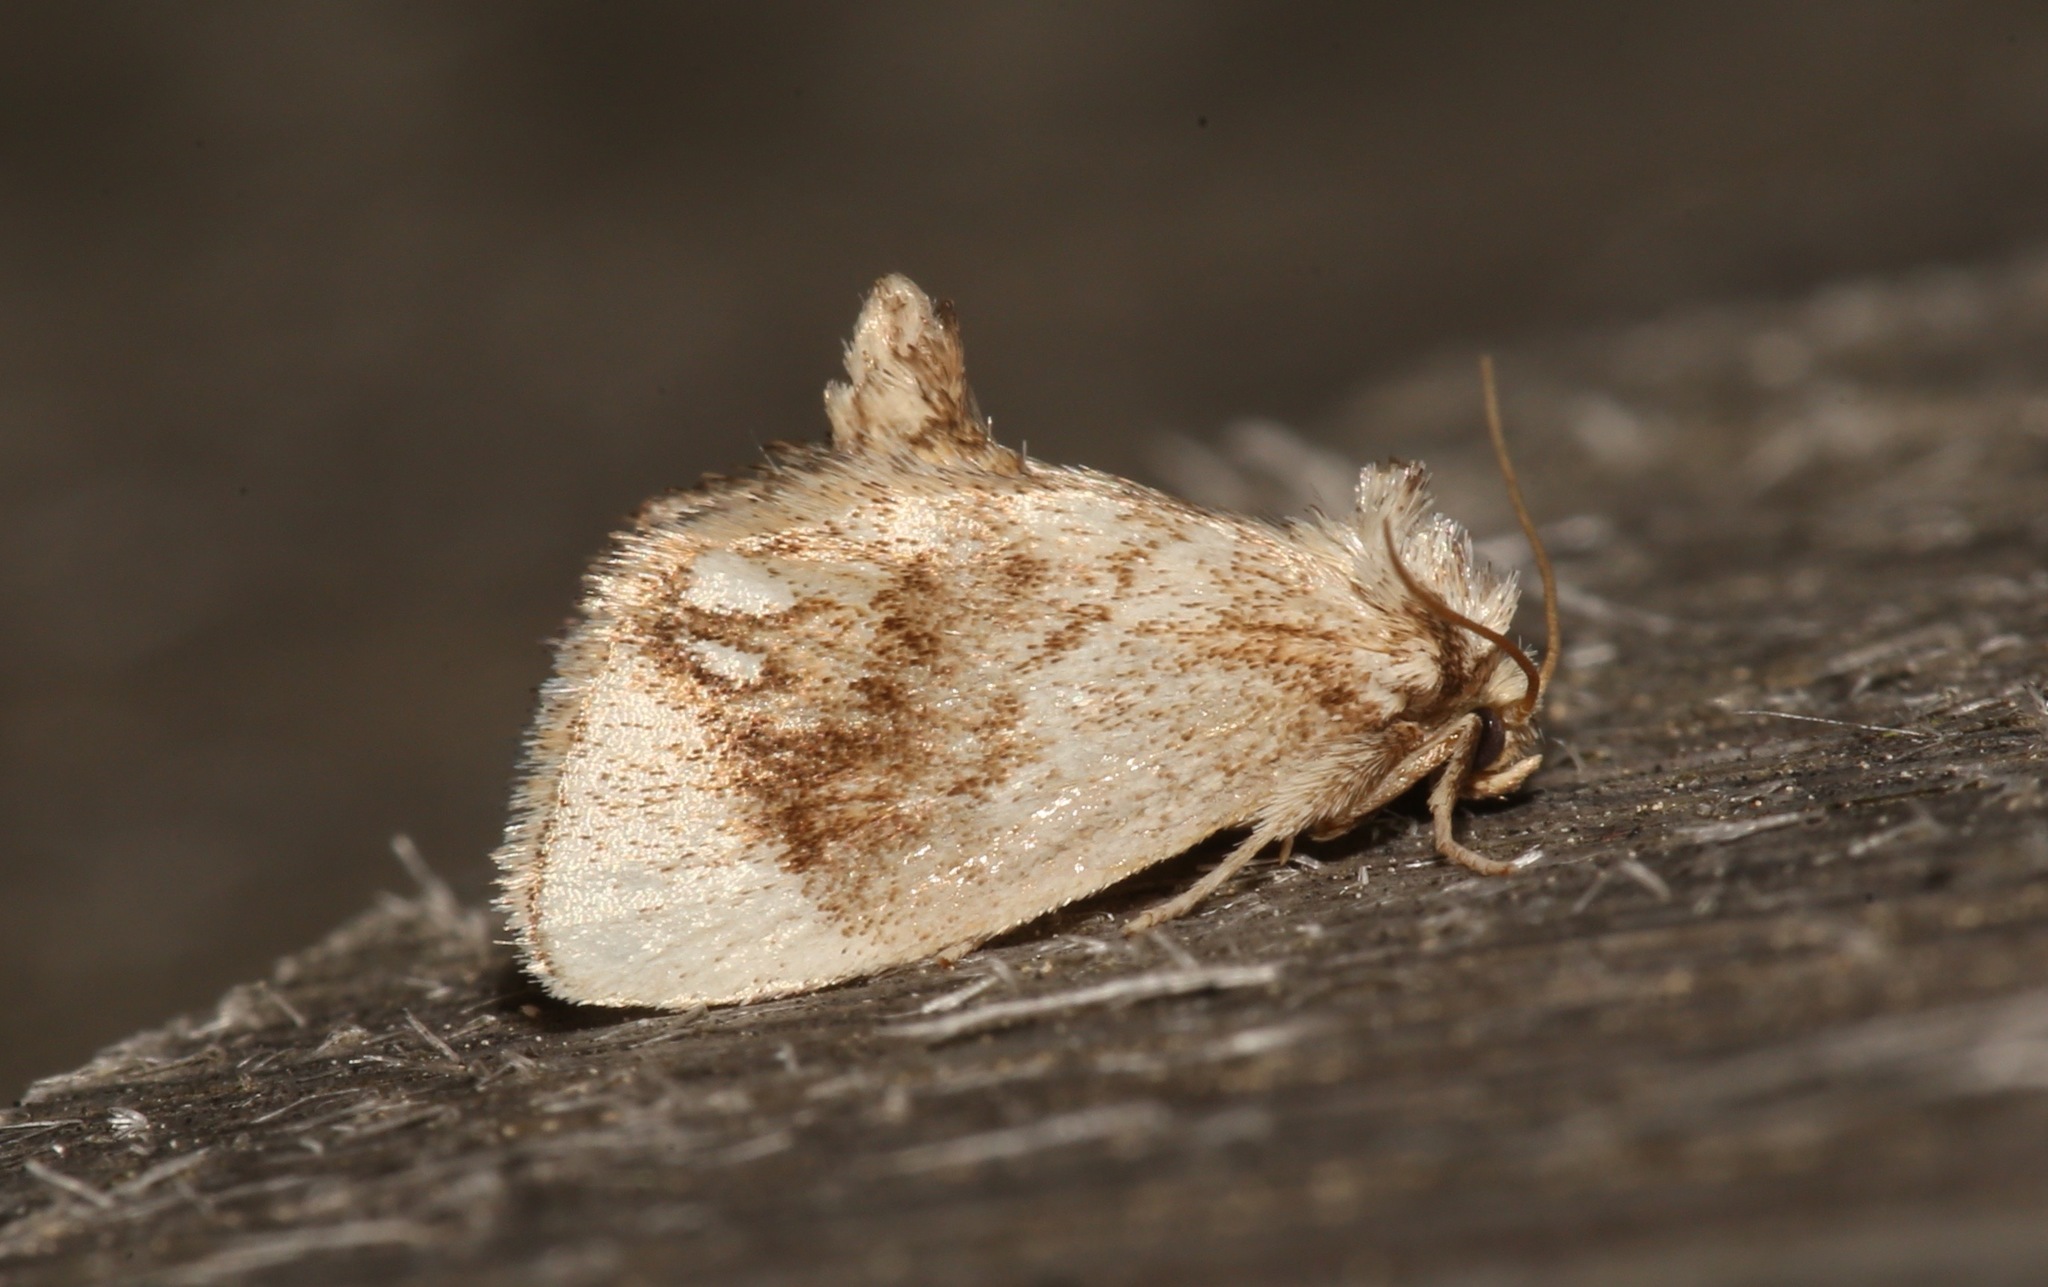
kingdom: Animalia
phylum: Arthropoda
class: Insecta
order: Lepidoptera
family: Limacodidae
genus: Packardia
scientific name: Packardia geminata
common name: Jeweled tailed slug moth
